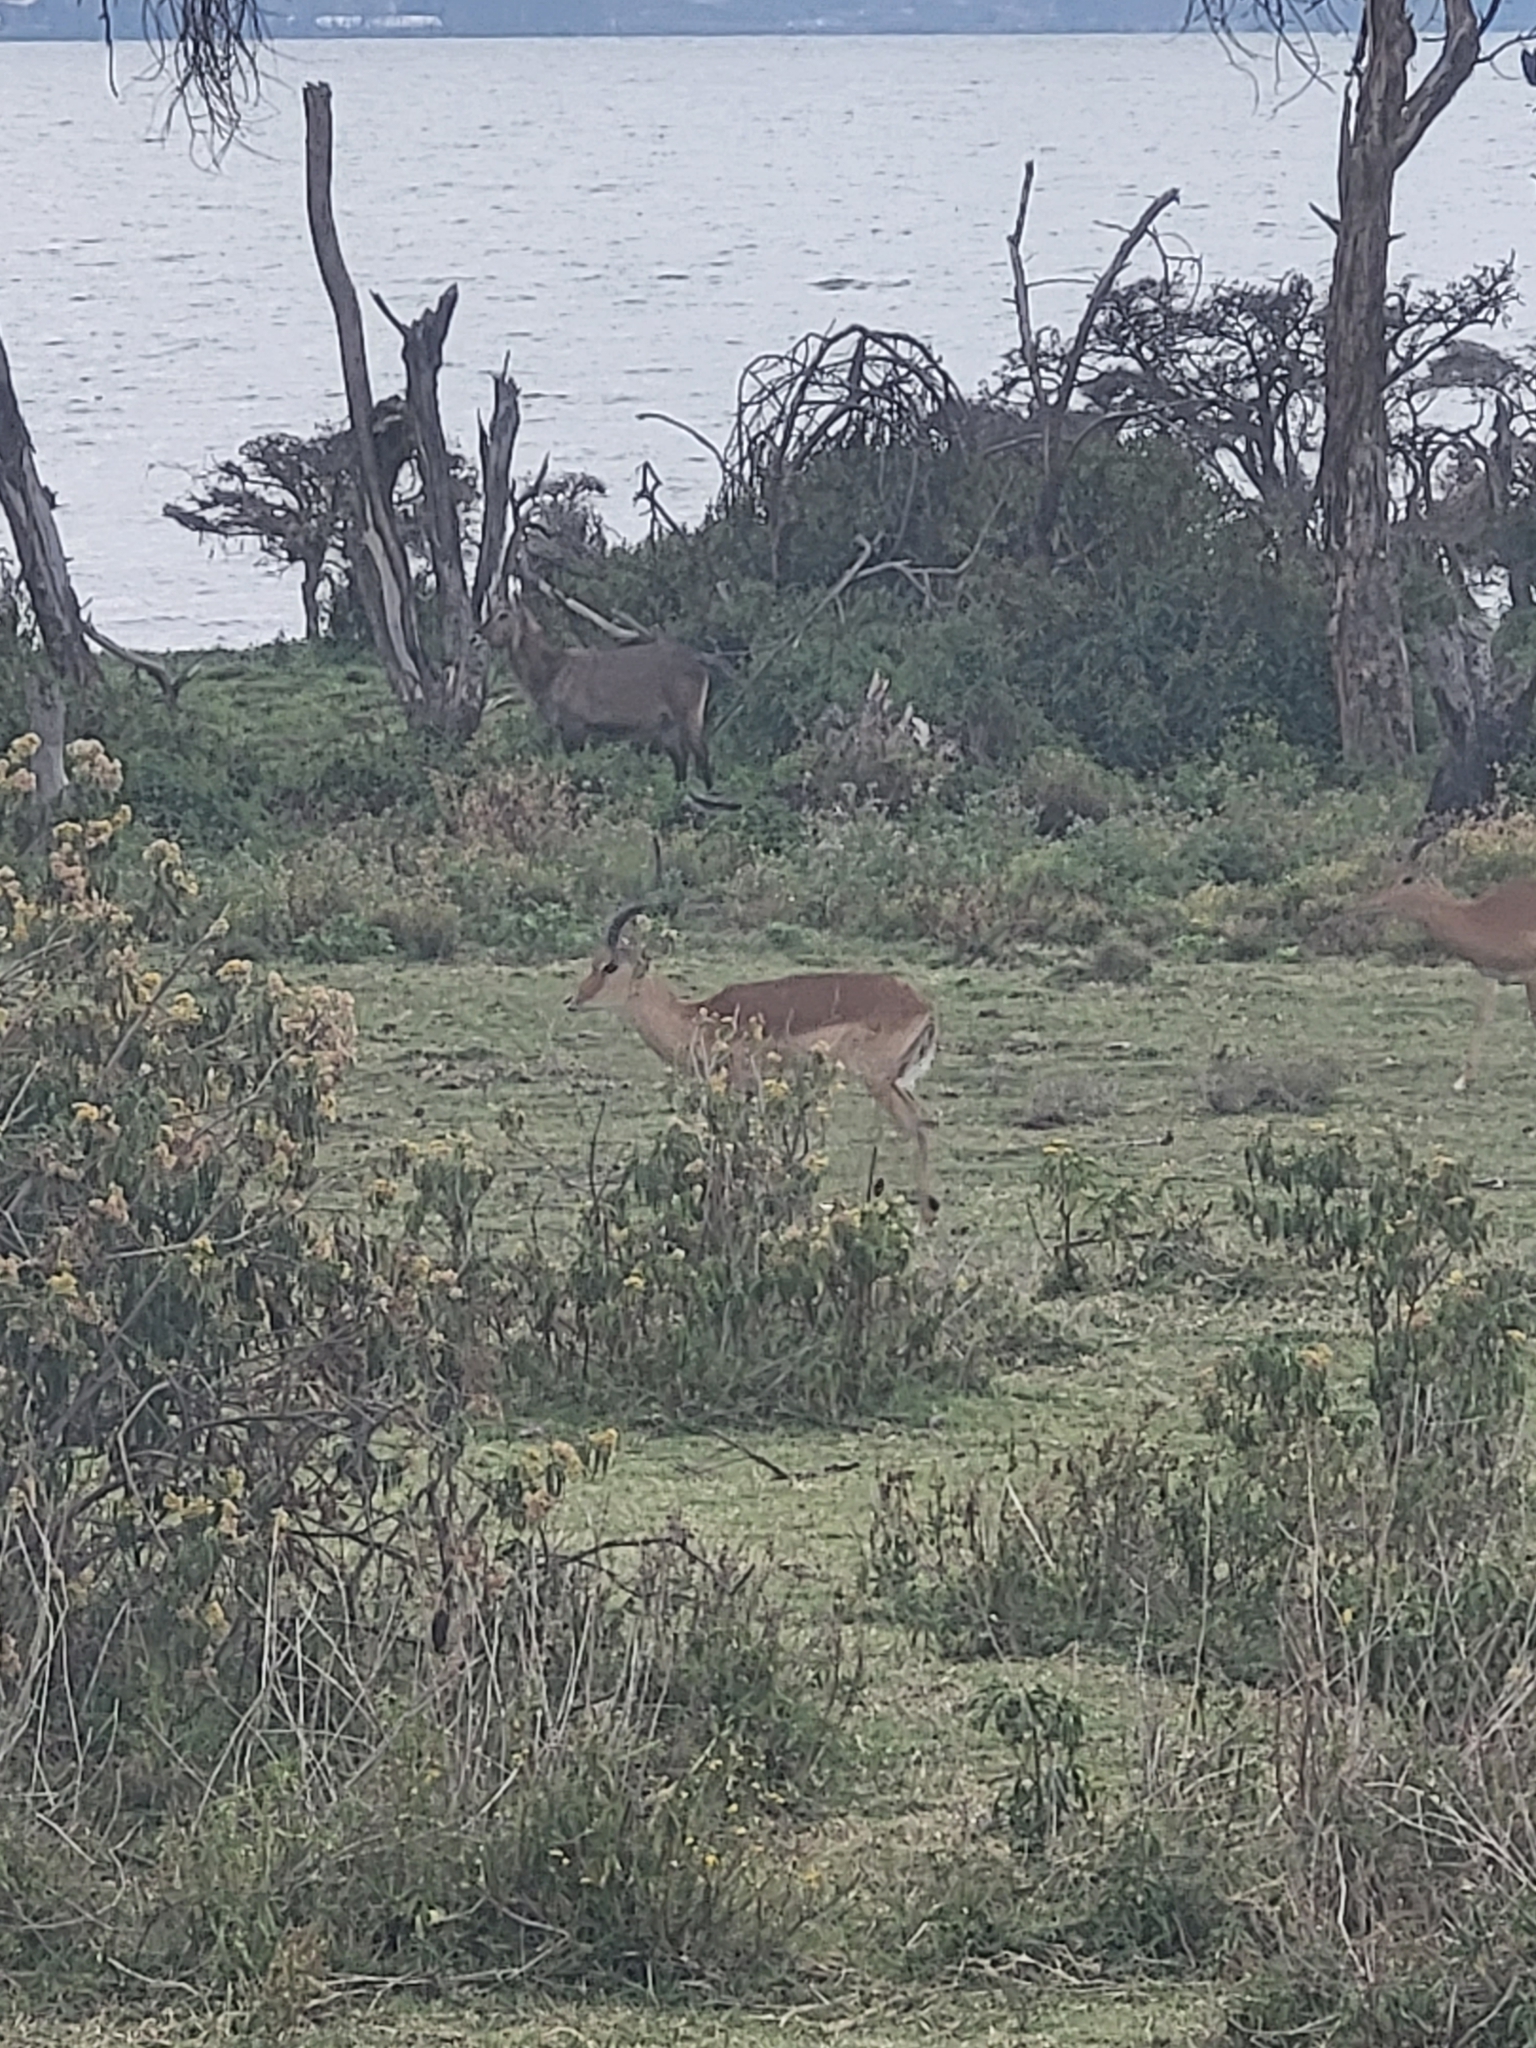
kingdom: Animalia
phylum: Chordata
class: Mammalia
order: Artiodactyla
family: Bovidae
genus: Aepyceros
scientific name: Aepyceros melampus
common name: Impala
